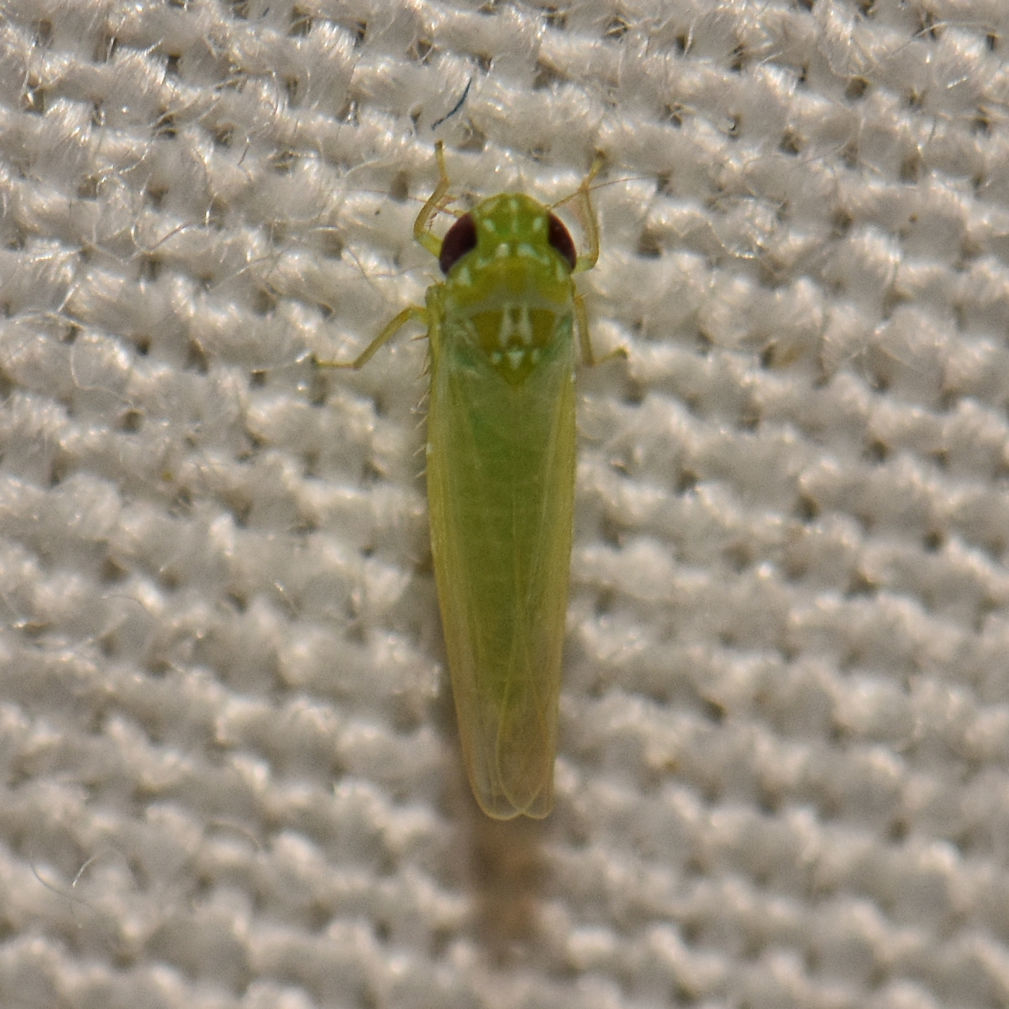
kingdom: Animalia
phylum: Arthropoda
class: Insecta
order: Hemiptera
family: Cicadellidae
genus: Empoasca
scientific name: Empoasca fabae
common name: Potato leafhopper
